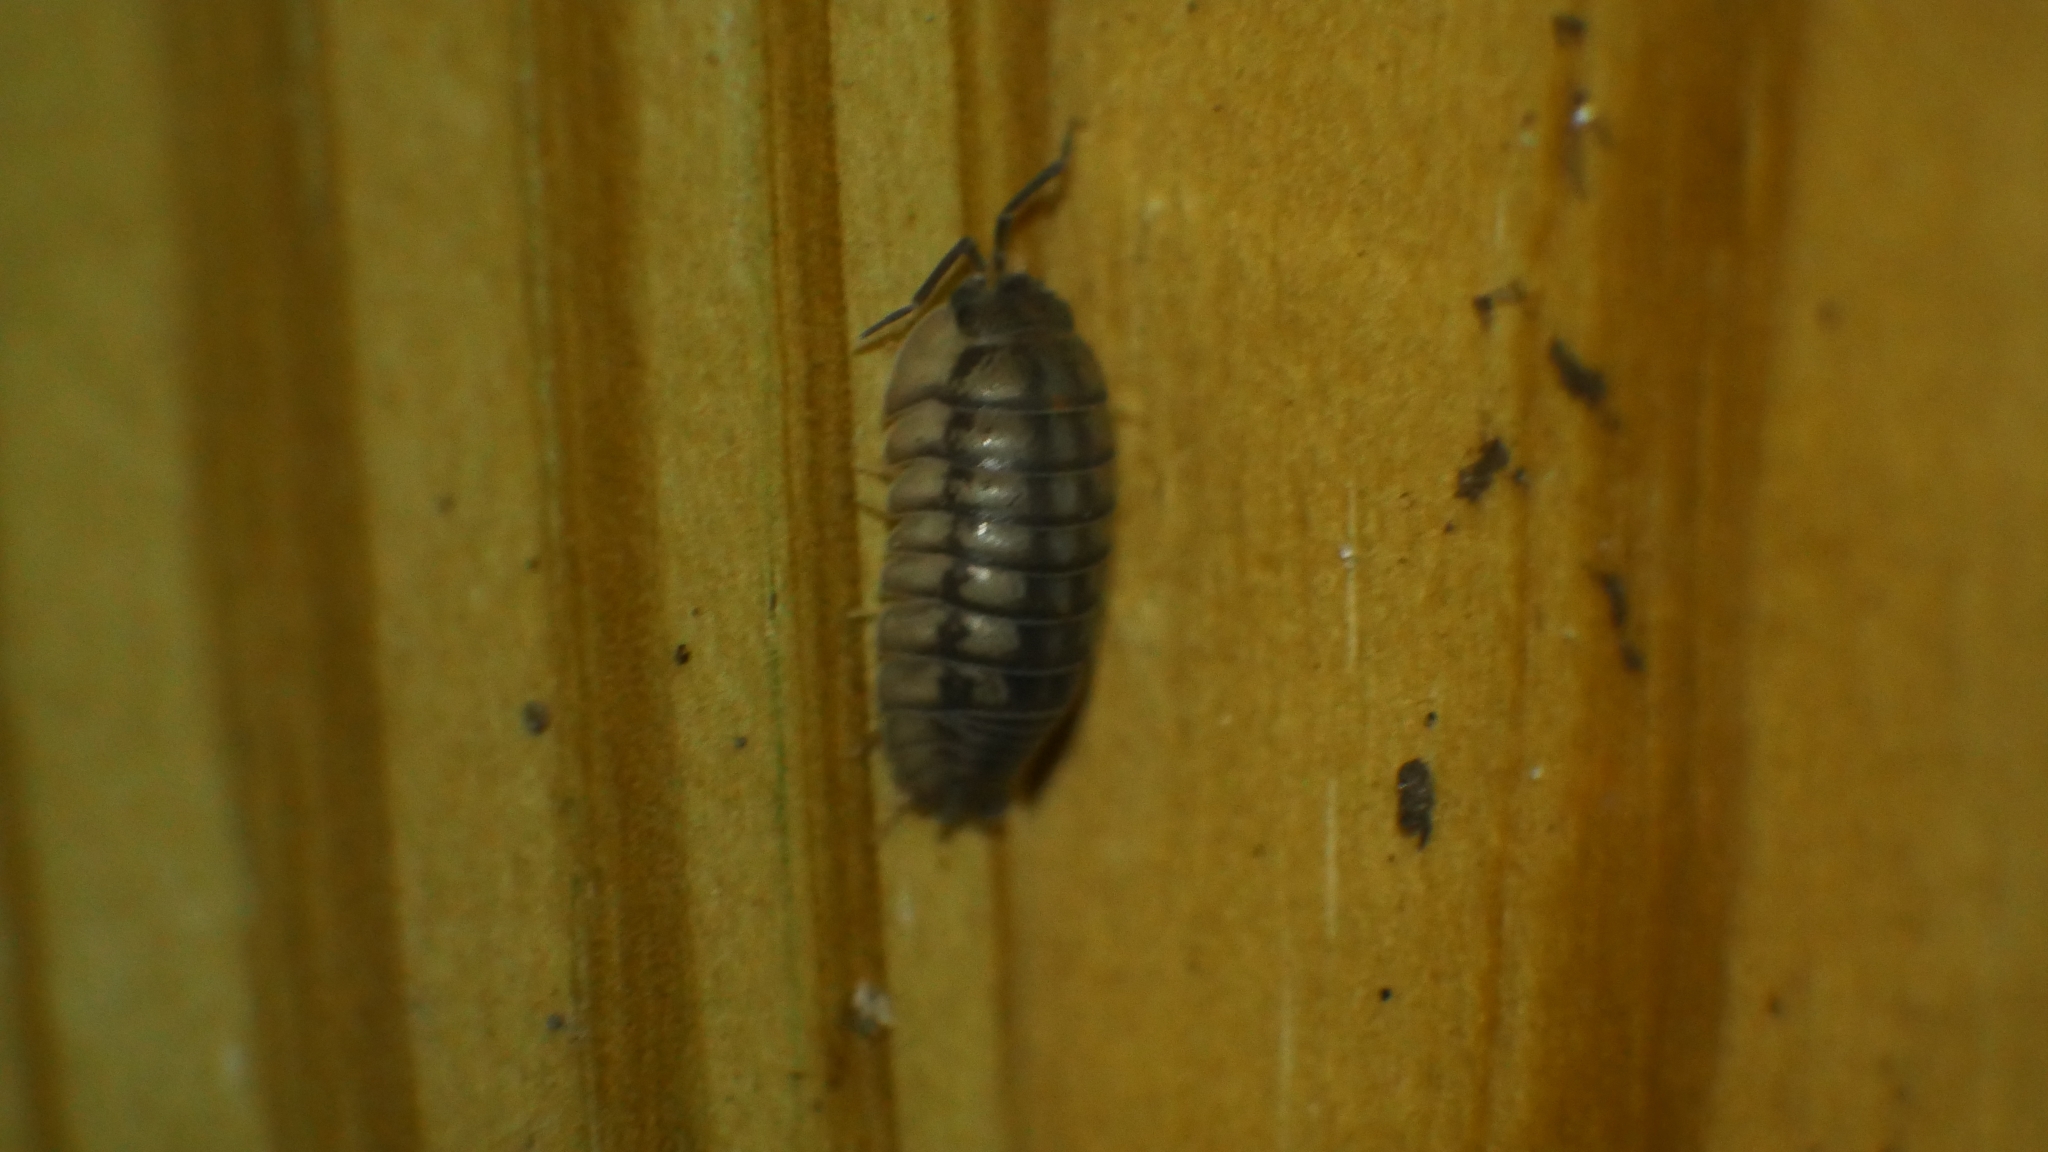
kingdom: Animalia
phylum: Arthropoda
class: Malacostraca
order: Isopoda
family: Armadillidiidae
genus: Armadillidium
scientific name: Armadillidium nasatum
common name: Isopod
